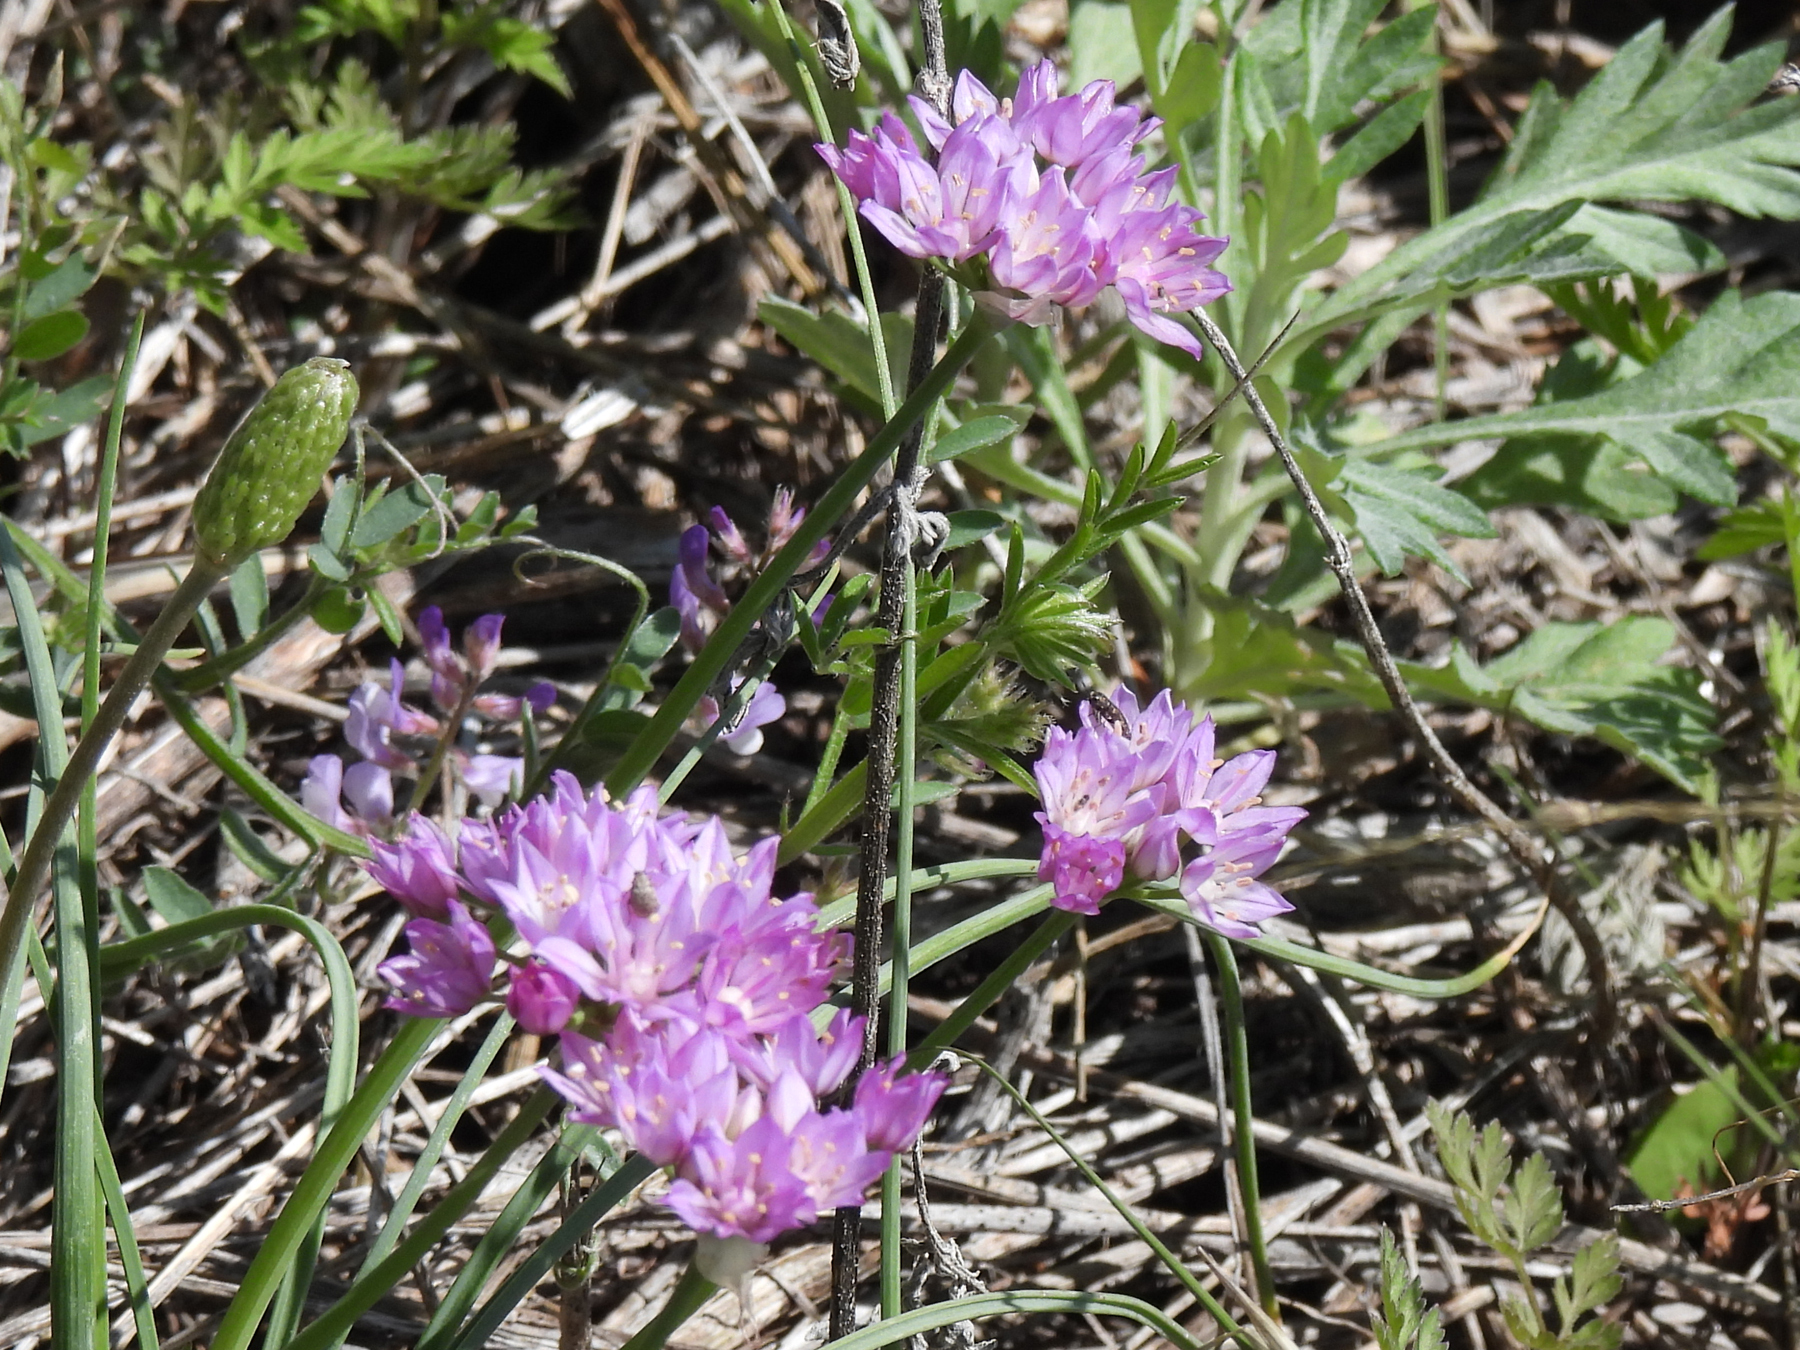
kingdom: Plantae
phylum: Tracheophyta
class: Liliopsida
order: Asparagales
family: Amaryllidaceae
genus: Allium
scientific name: Allium drummondii
